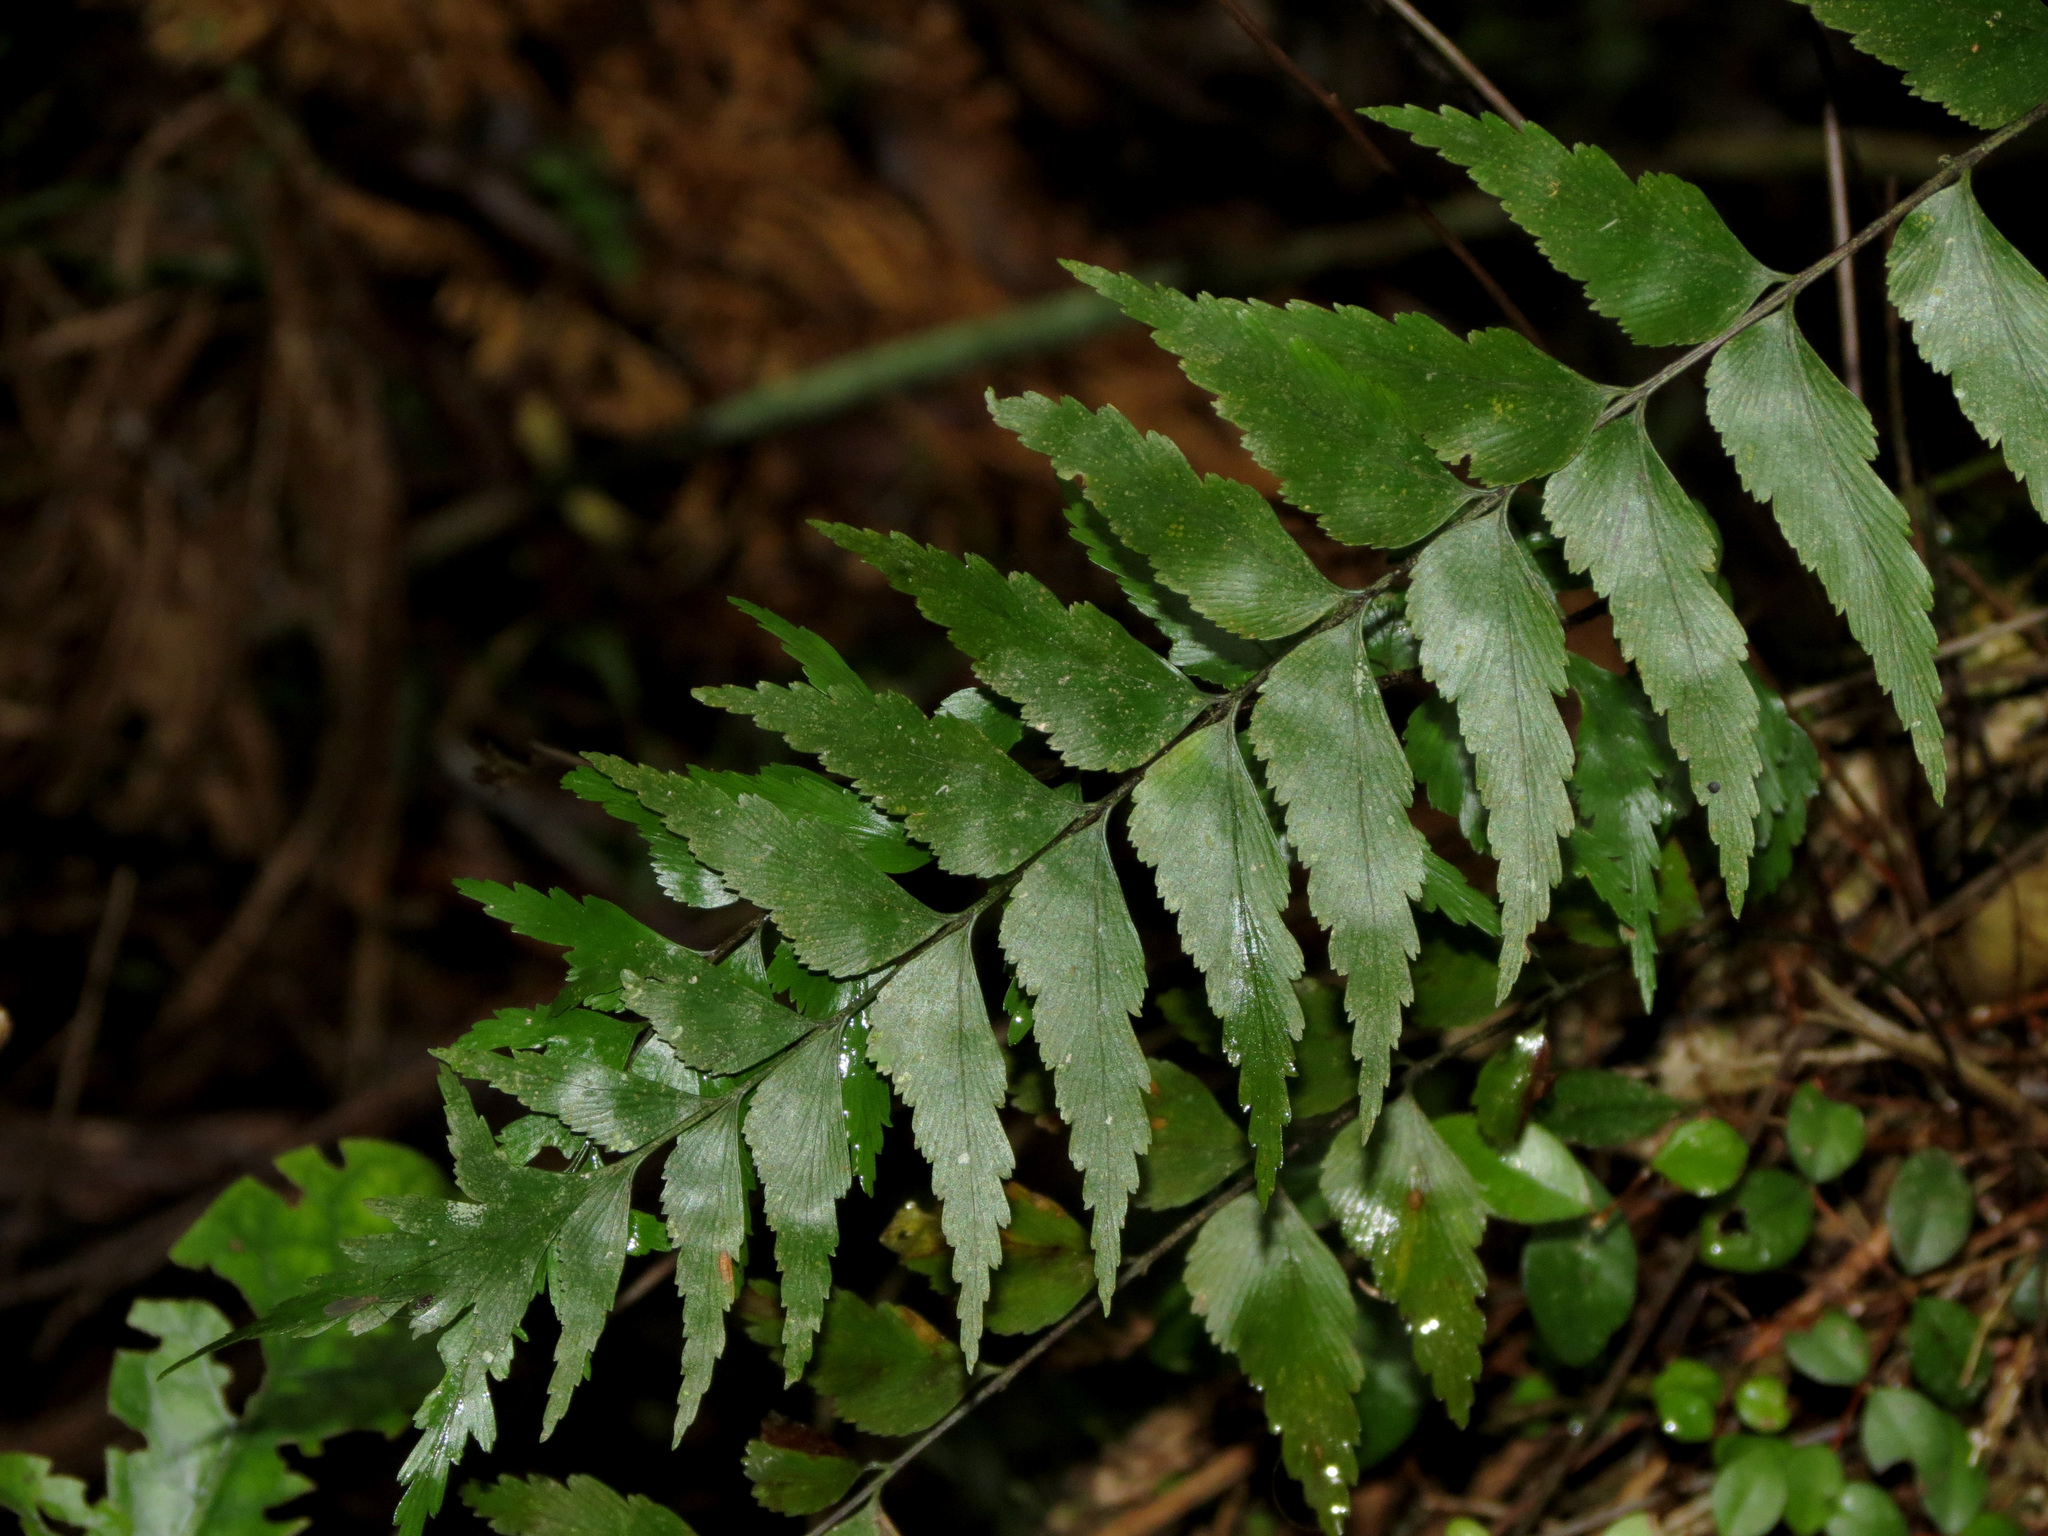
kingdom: Plantae
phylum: Tracheophyta
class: Polypodiopsida
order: Polypodiales
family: Aspleniaceae
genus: Asplenium
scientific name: Asplenium polyodon
